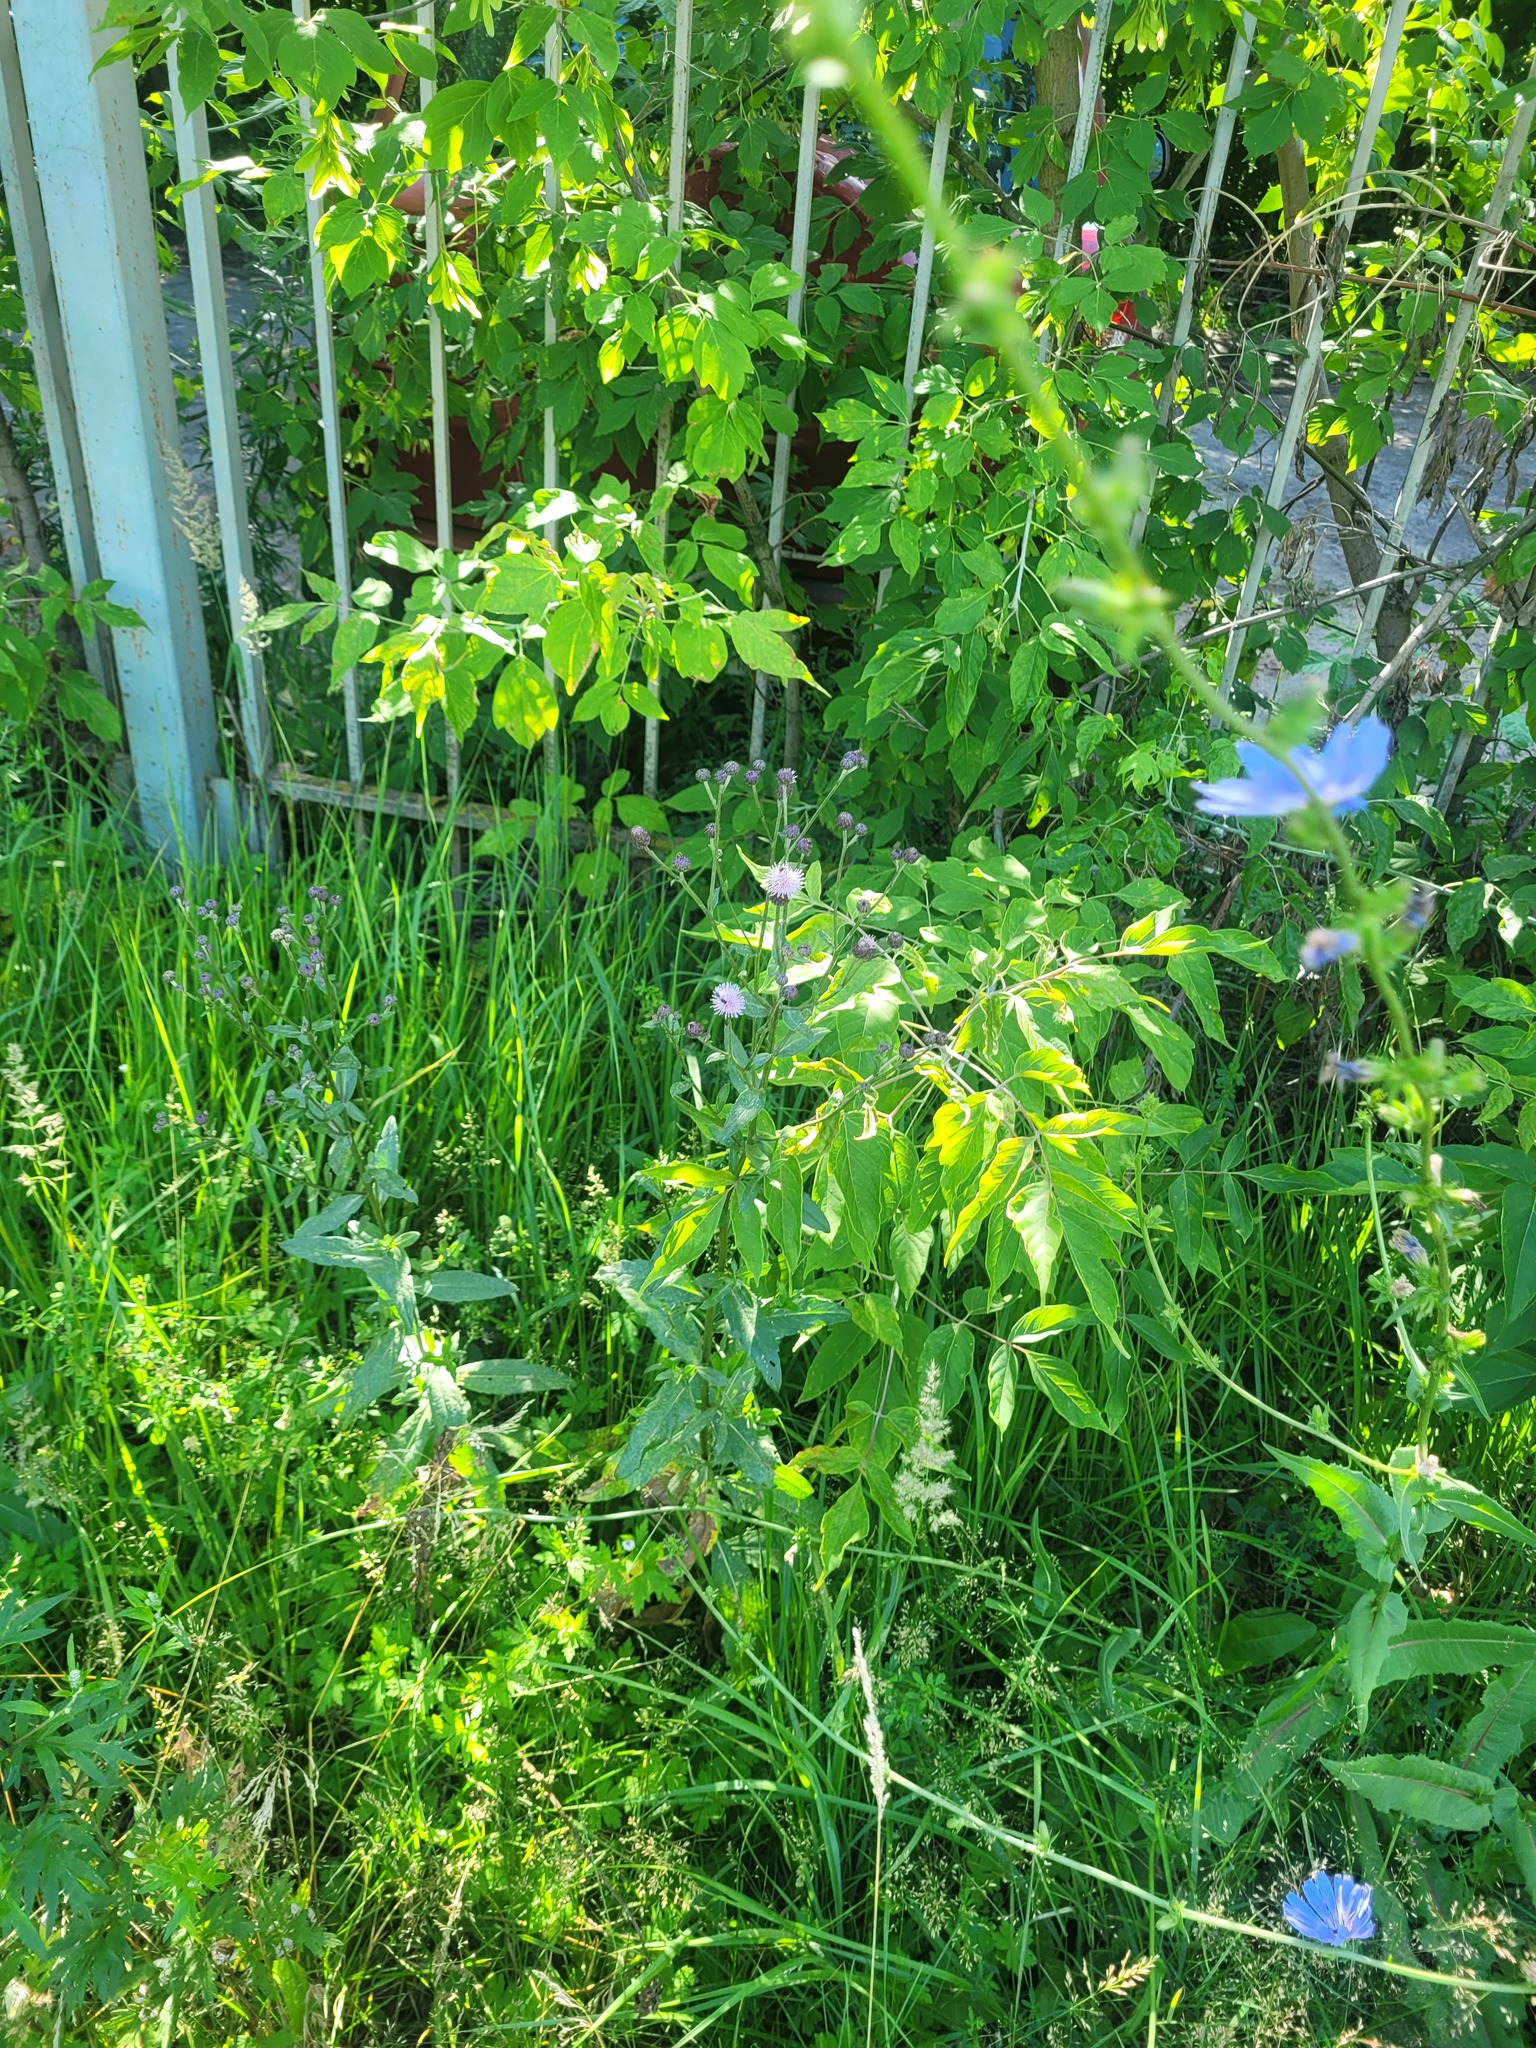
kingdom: Plantae
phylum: Tracheophyta
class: Magnoliopsida
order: Asterales
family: Asteraceae
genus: Cirsium
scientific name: Cirsium arvense
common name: Creeping thistle
